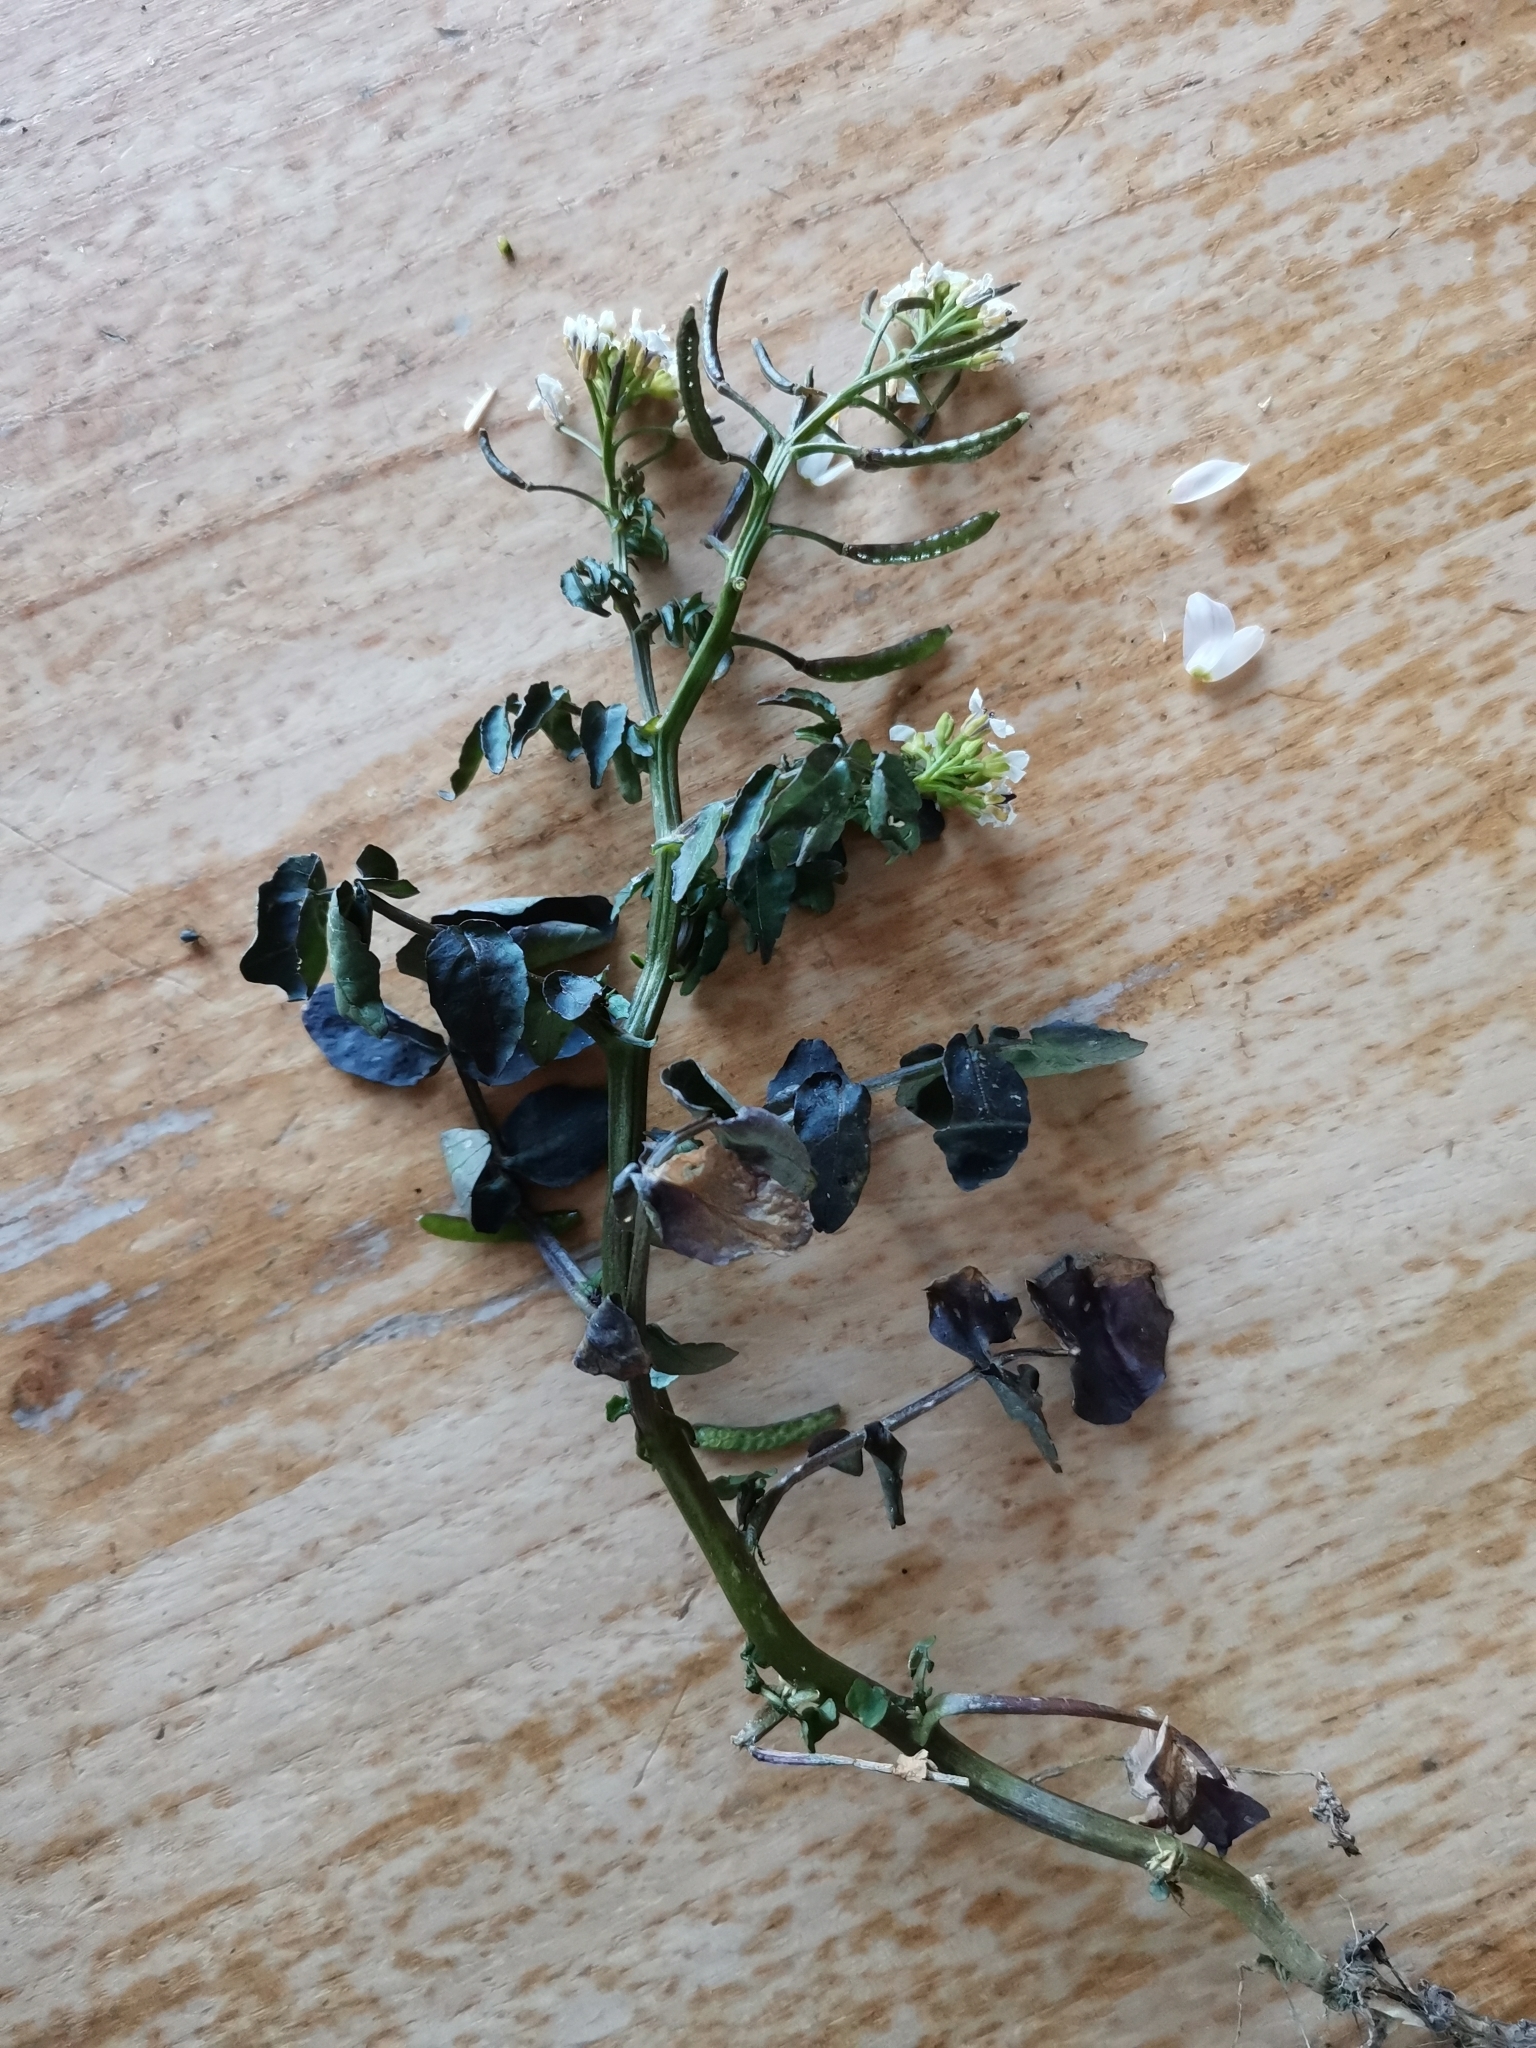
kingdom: Plantae
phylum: Tracheophyta
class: Magnoliopsida
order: Brassicales
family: Brassicaceae
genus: Nasturtium
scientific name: Nasturtium officinale
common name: Watercress
